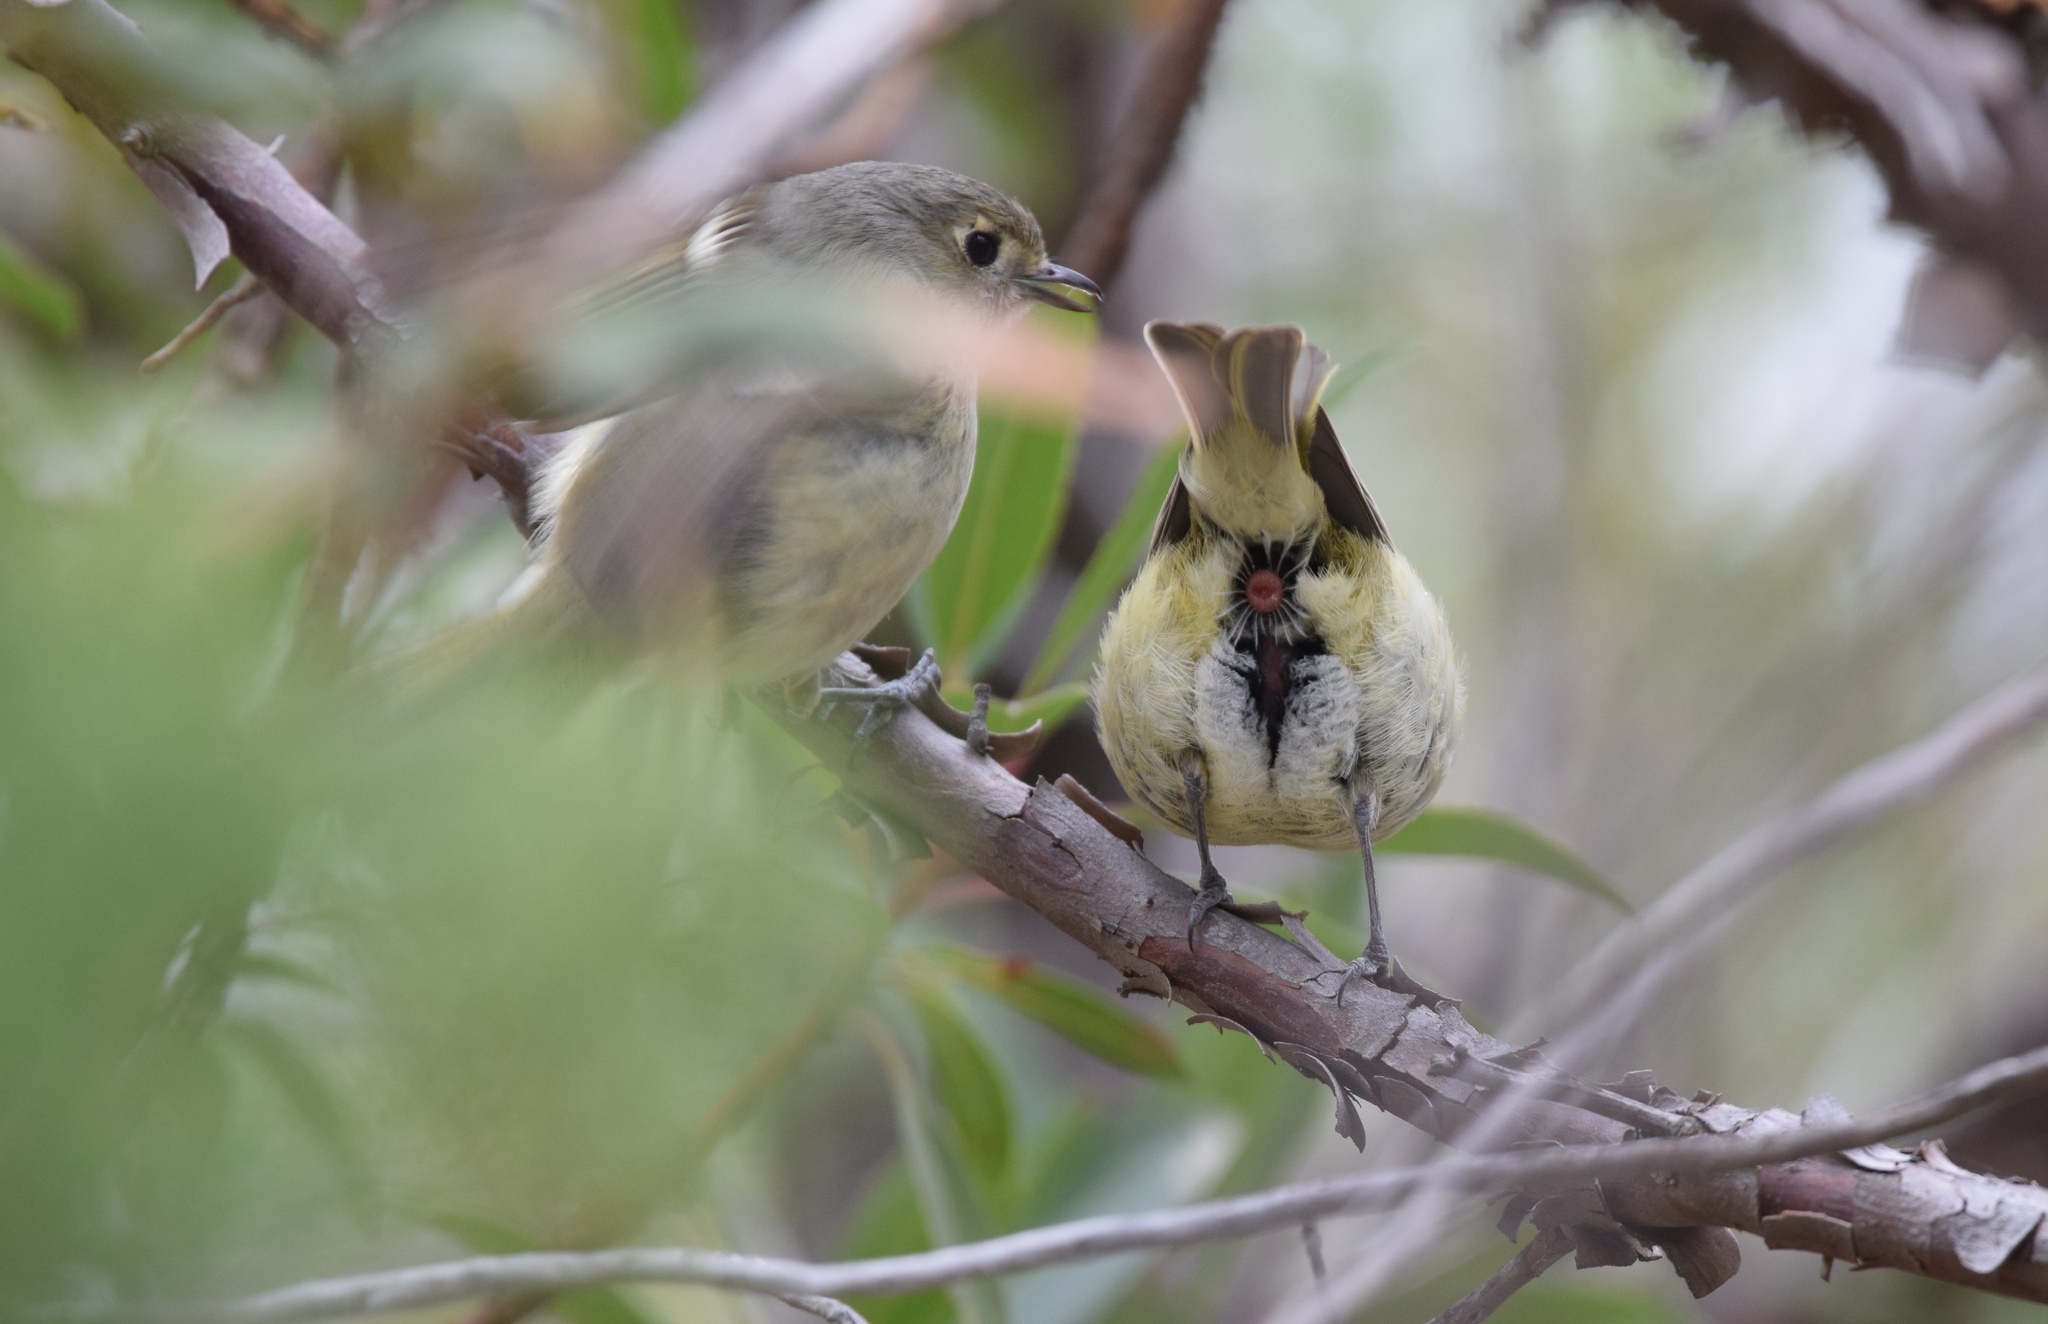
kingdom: Animalia
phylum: Chordata
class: Aves
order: Passeriformes
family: Vireonidae
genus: Vireo
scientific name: Vireo huttoni
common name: Hutton's vireo
